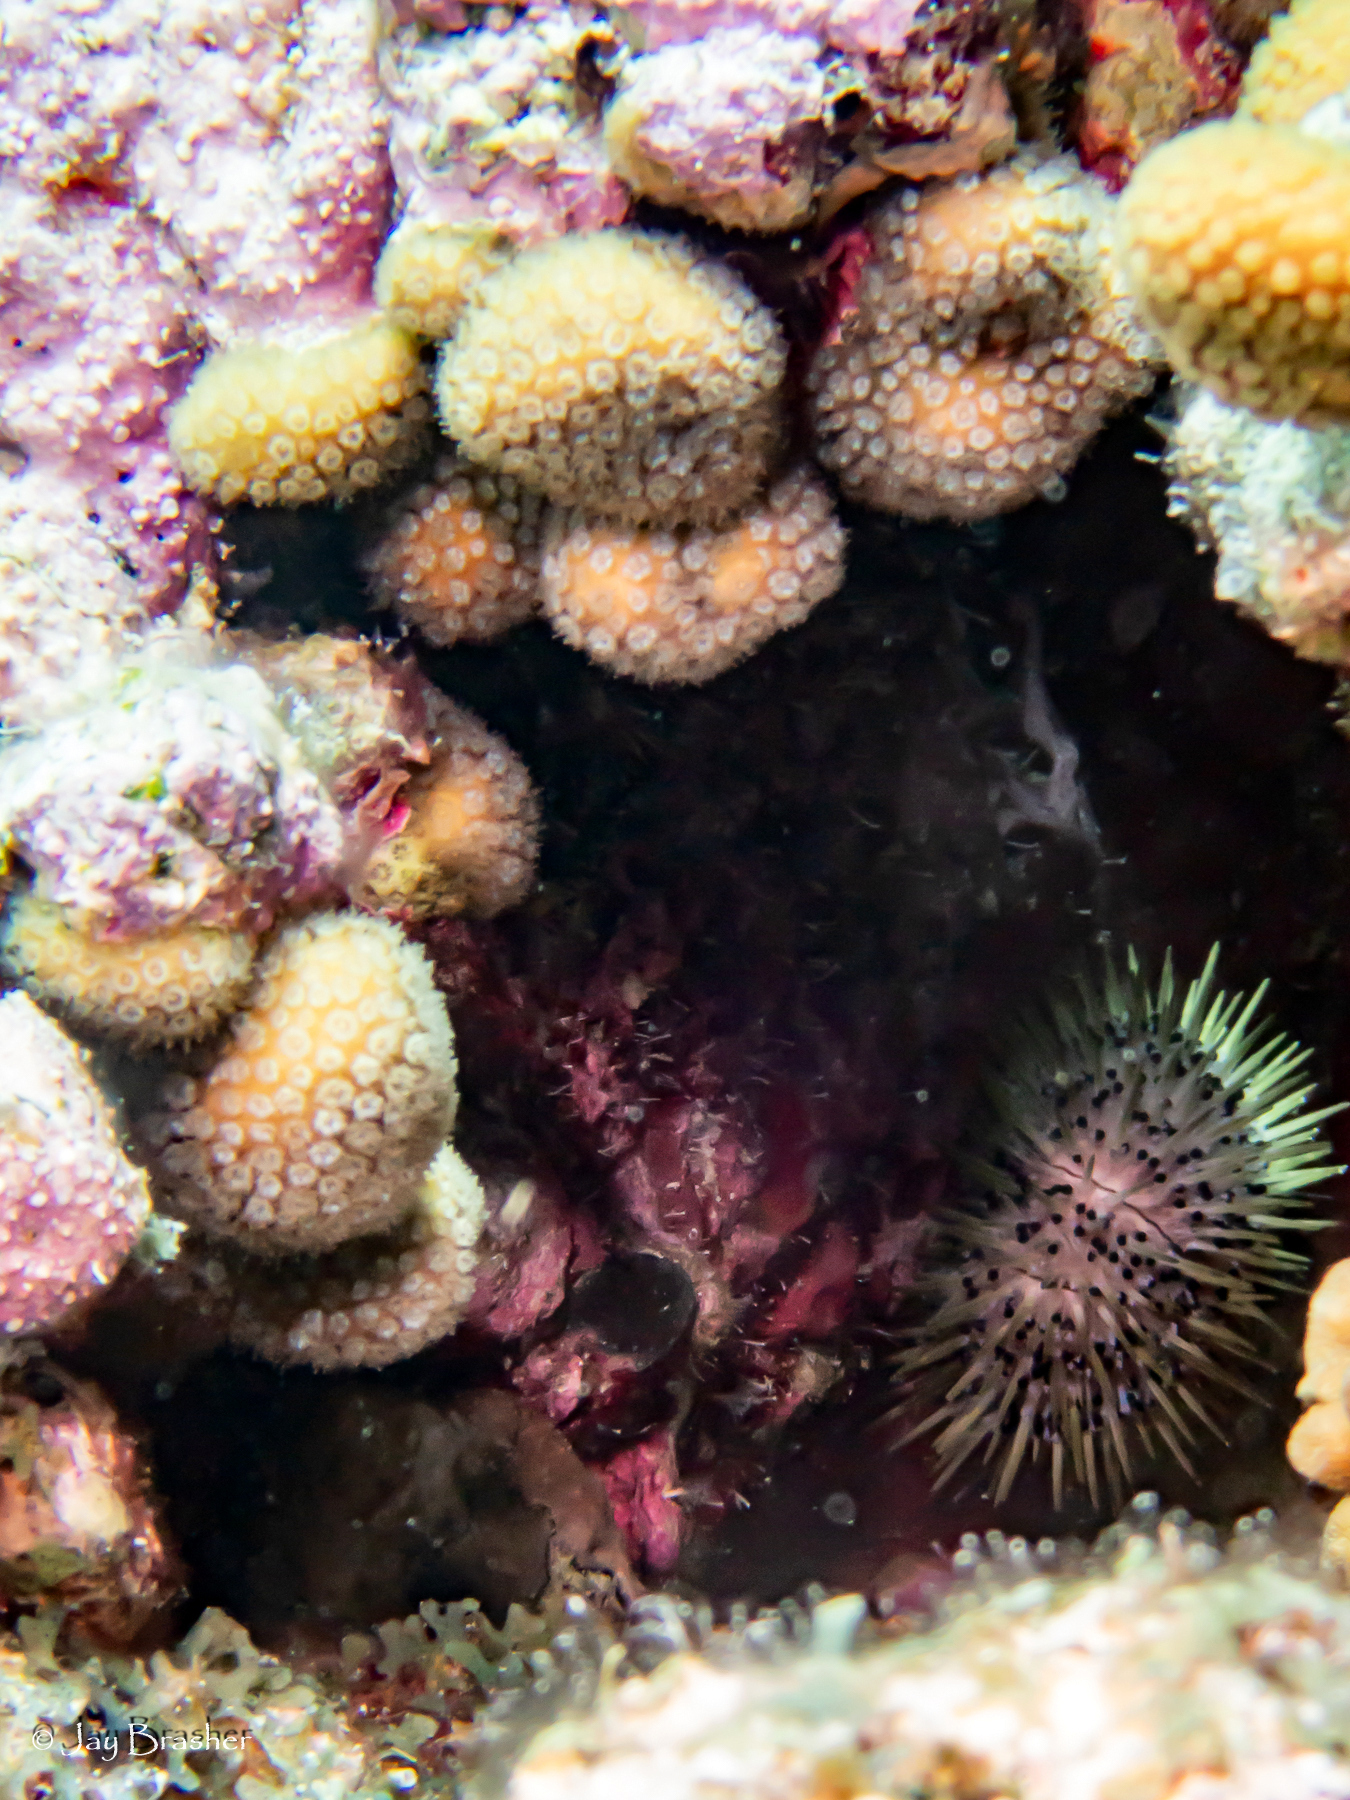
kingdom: Animalia
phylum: Cnidaria
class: Anthozoa
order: Scleractinia
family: Pocilloporidae
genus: Madracis
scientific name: Madracis decactis
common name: Ten-ray star coral
